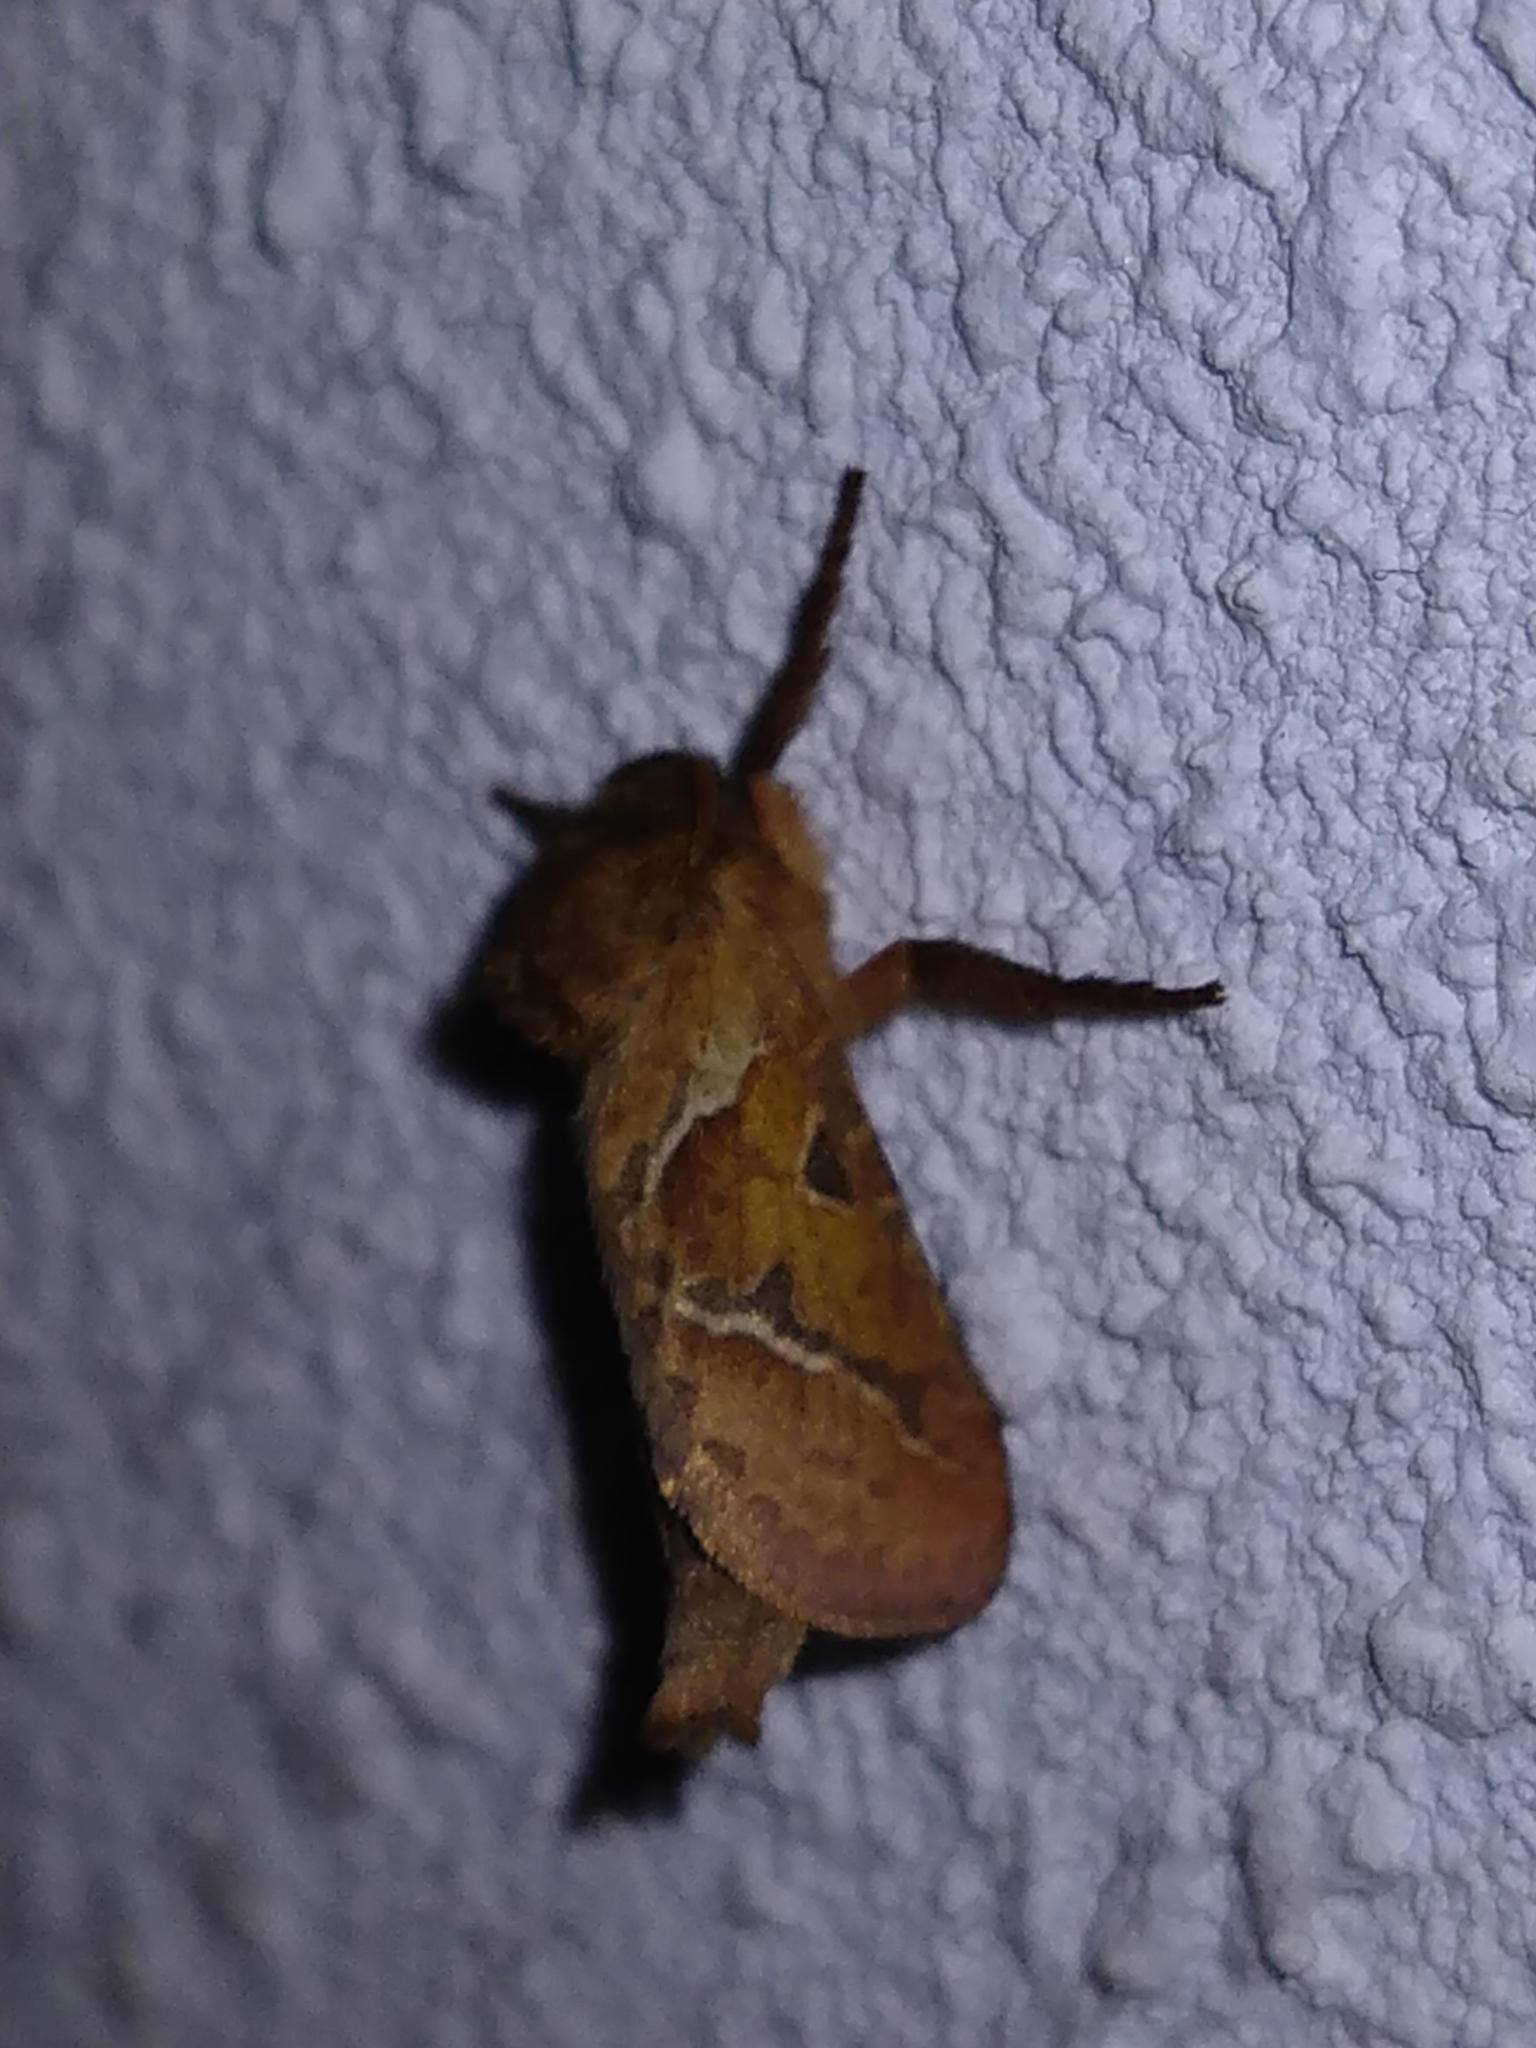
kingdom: Animalia
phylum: Arthropoda
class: Insecta
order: Lepidoptera
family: Hepialidae
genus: Triodia
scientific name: Triodia sylvina
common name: Orange swift
